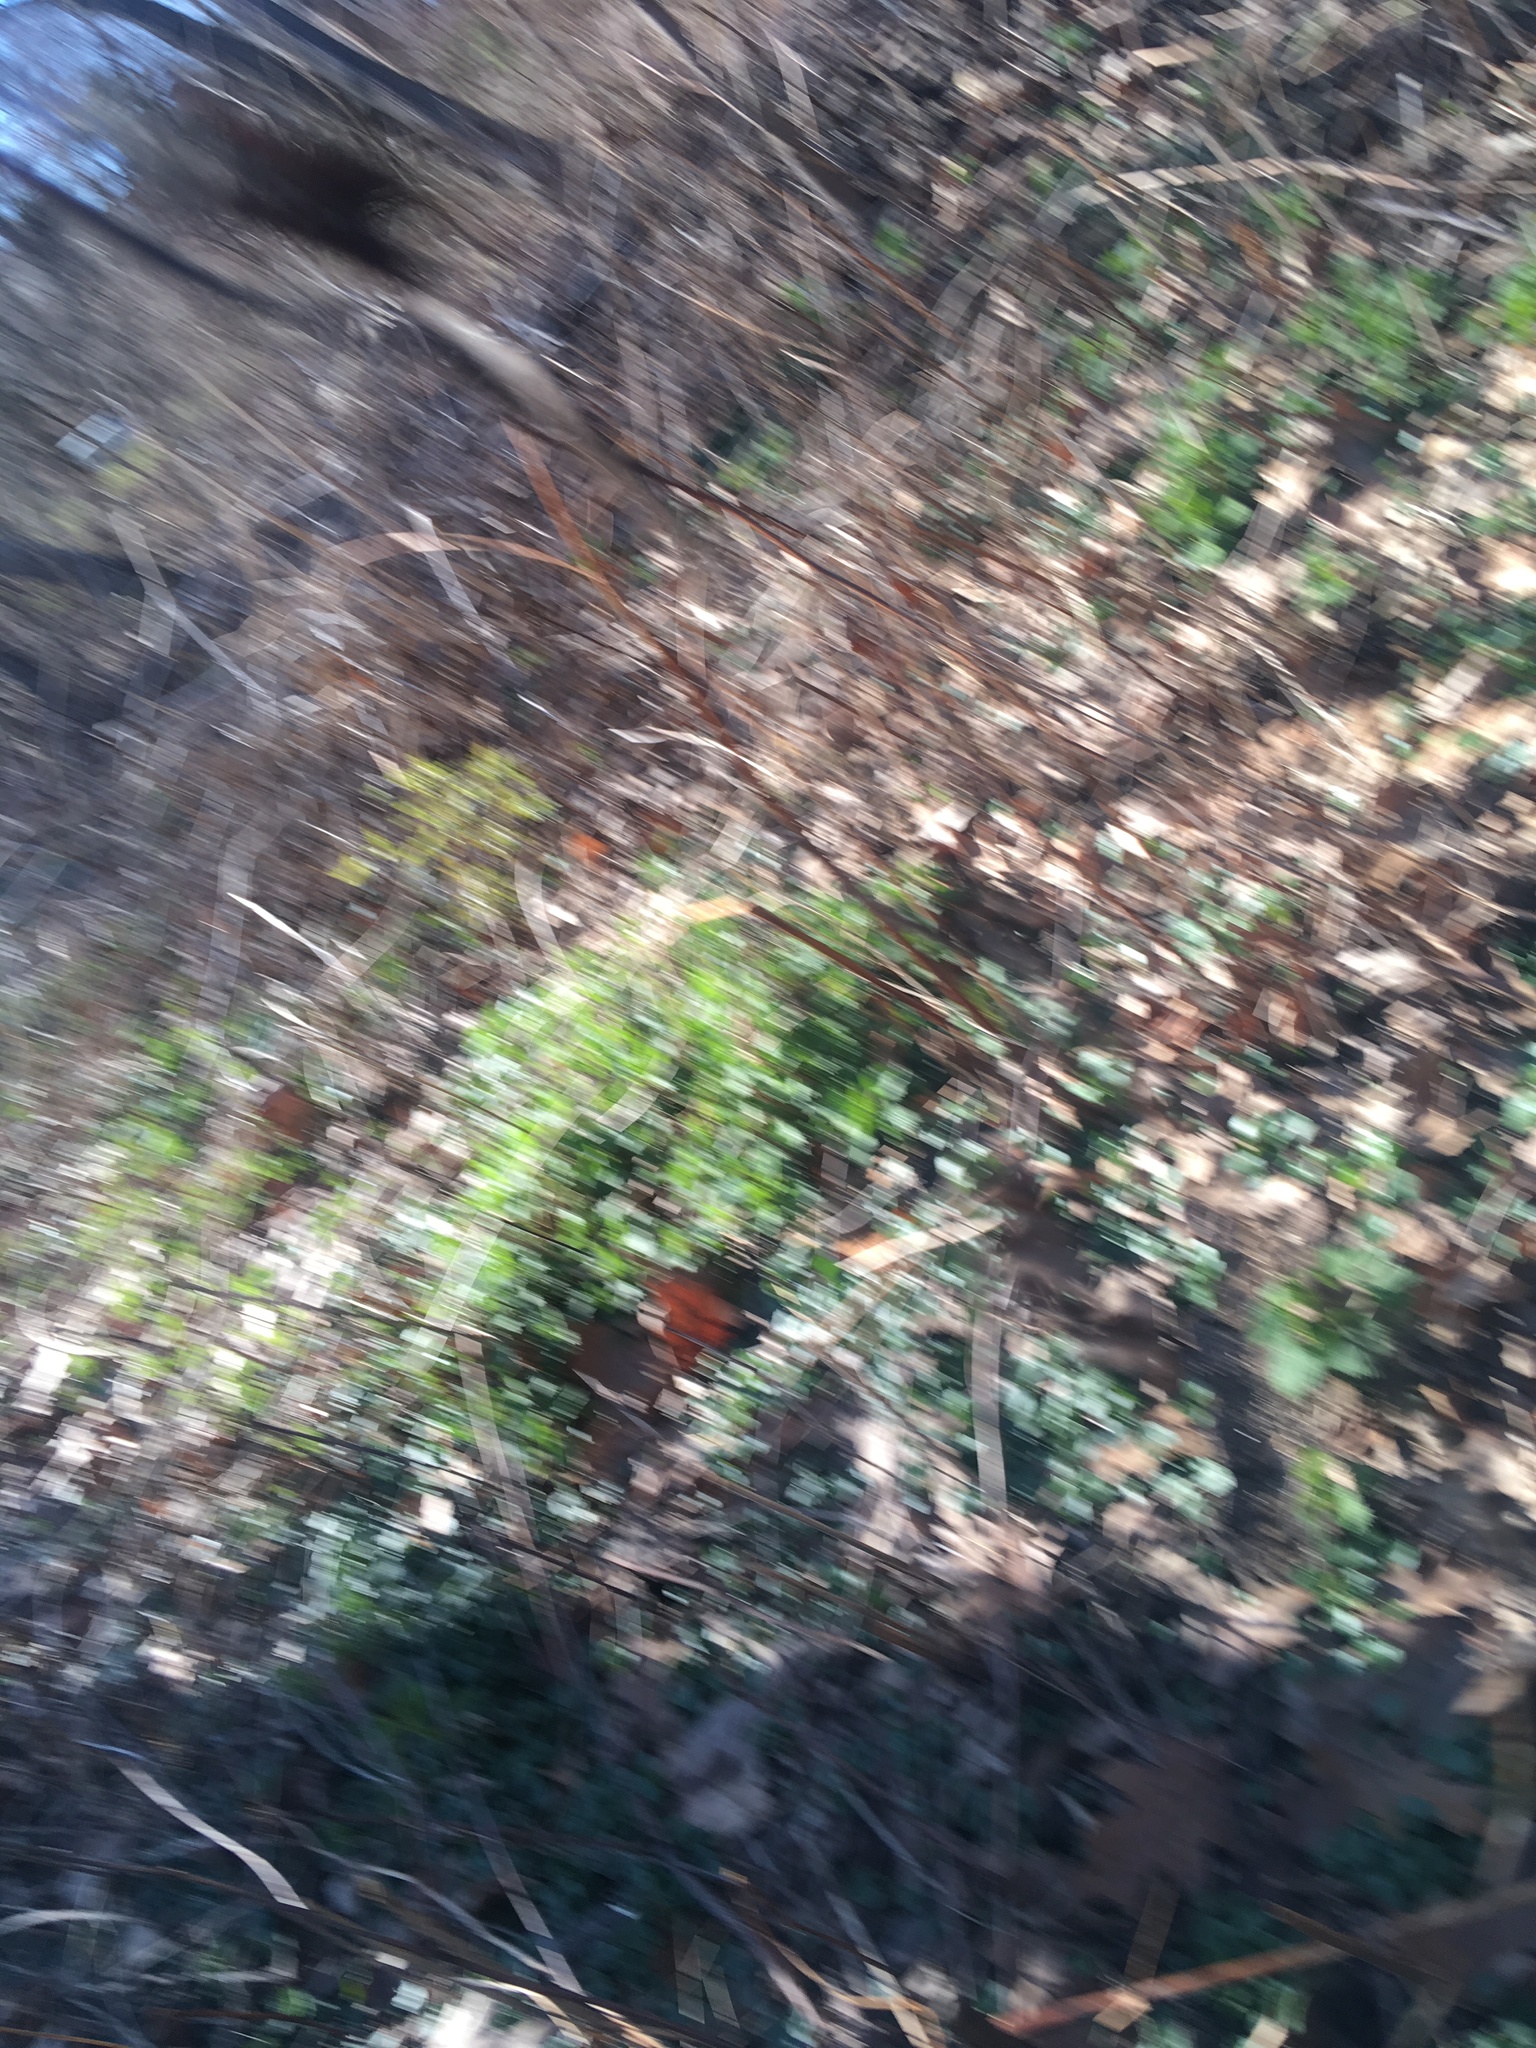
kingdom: Plantae
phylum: Tracheophyta
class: Magnoliopsida
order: Ranunculales
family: Ranunculaceae
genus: Ficaria
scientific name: Ficaria verna
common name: Lesser celandine
